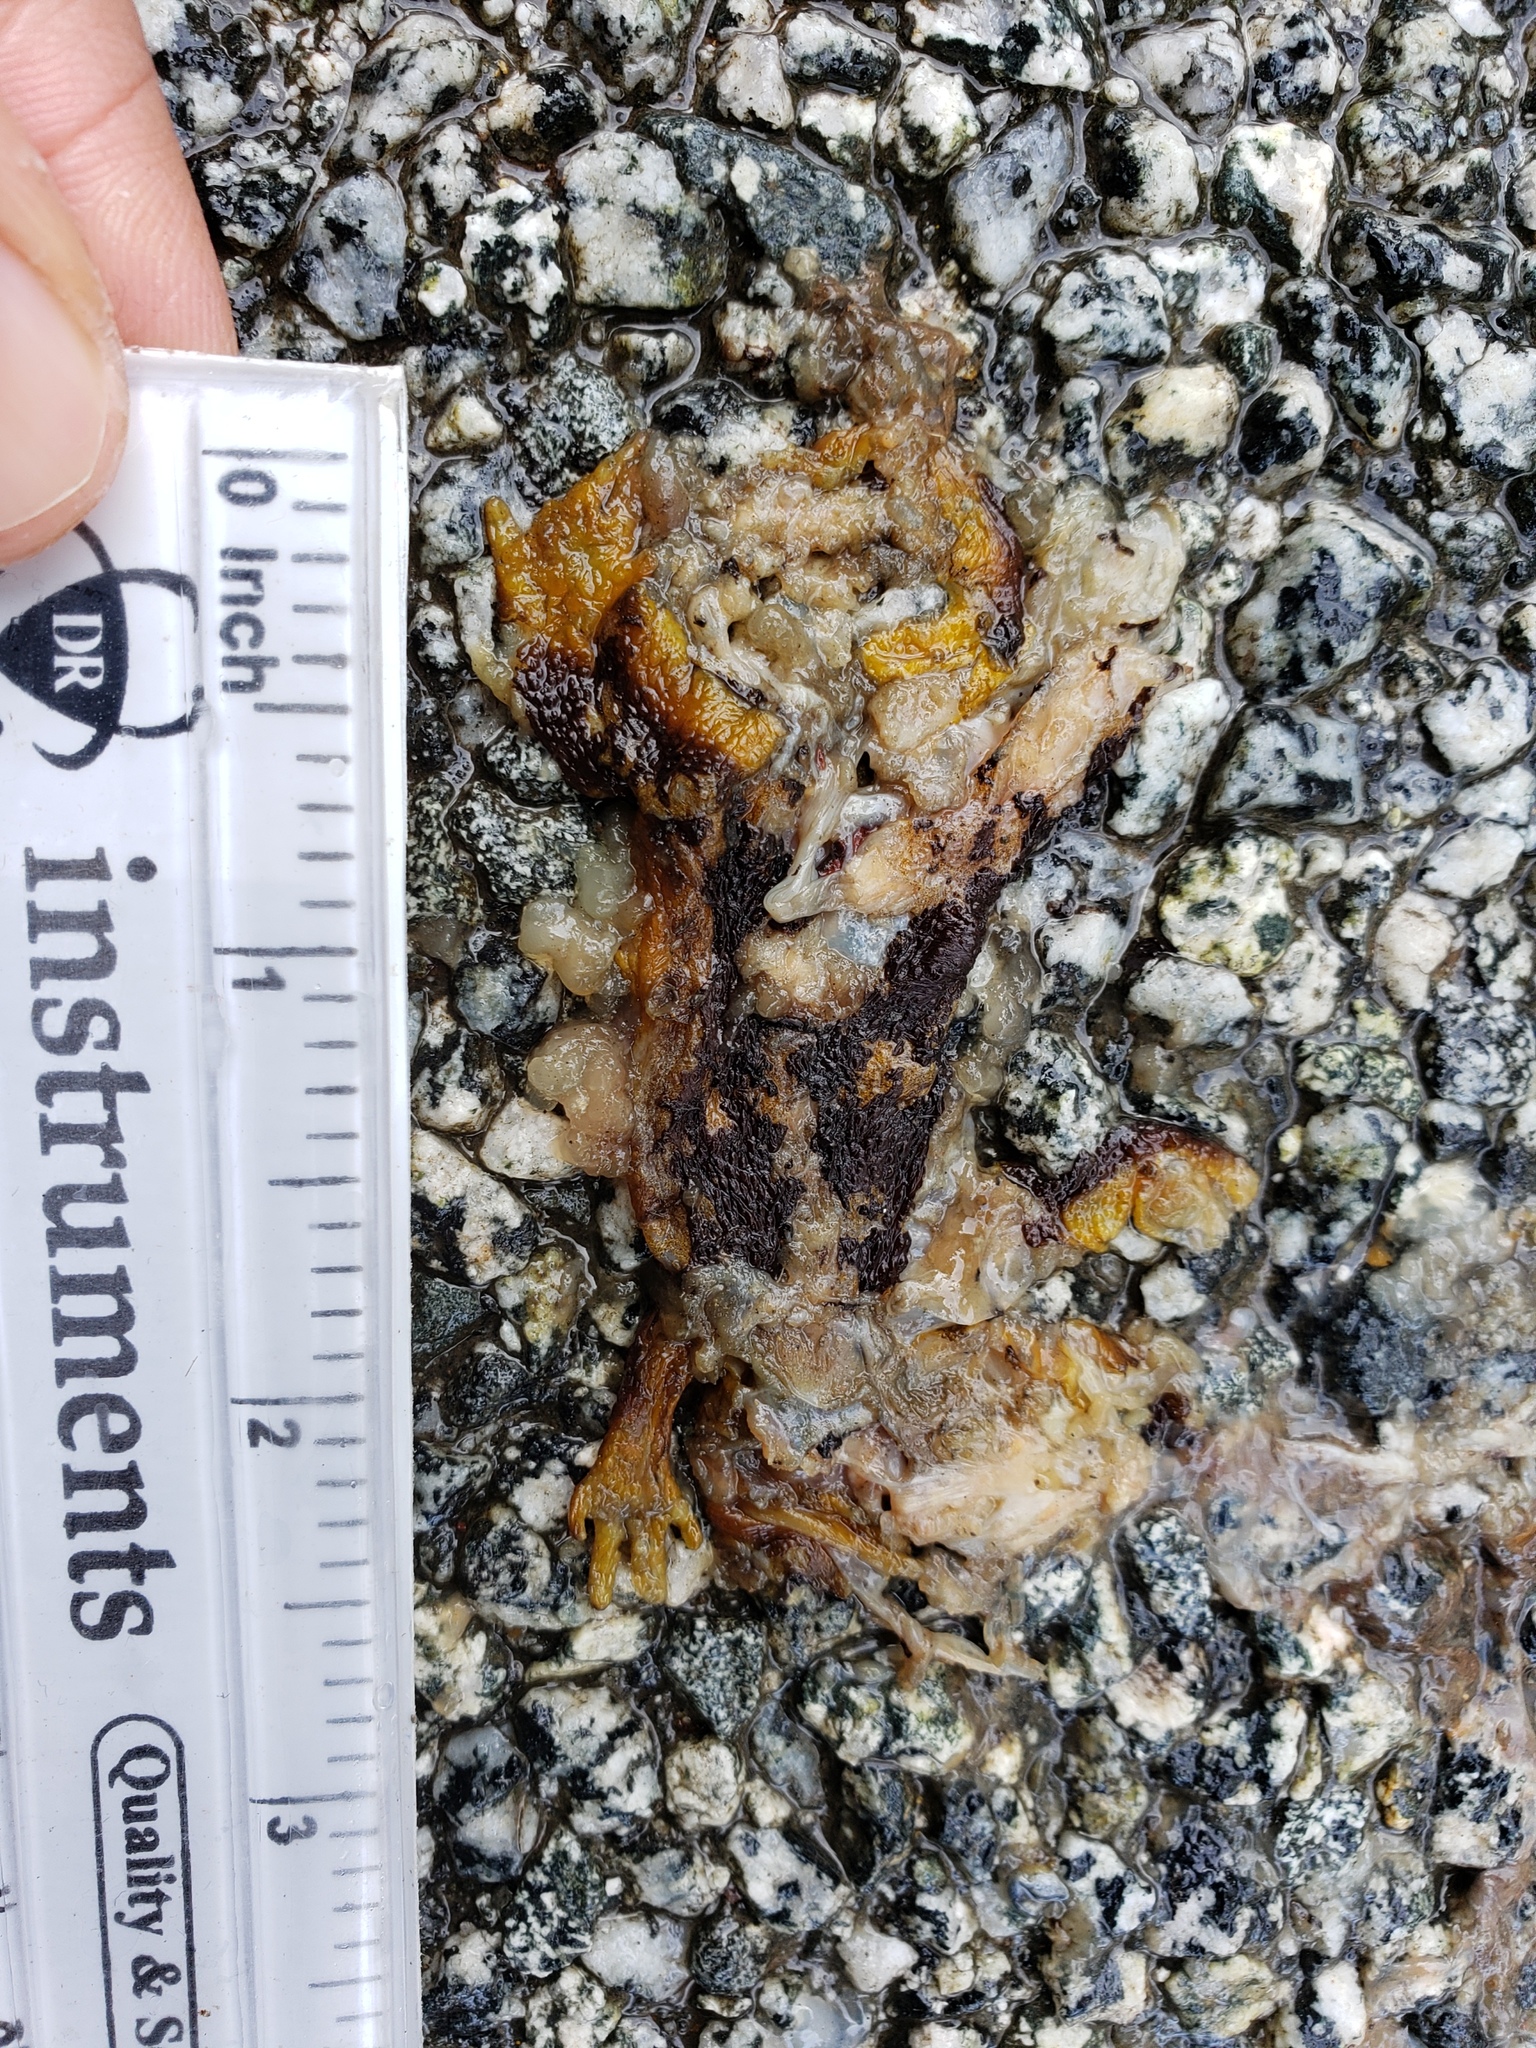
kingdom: Animalia
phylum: Chordata
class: Amphibia
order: Caudata
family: Salamandridae
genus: Taricha
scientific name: Taricha
